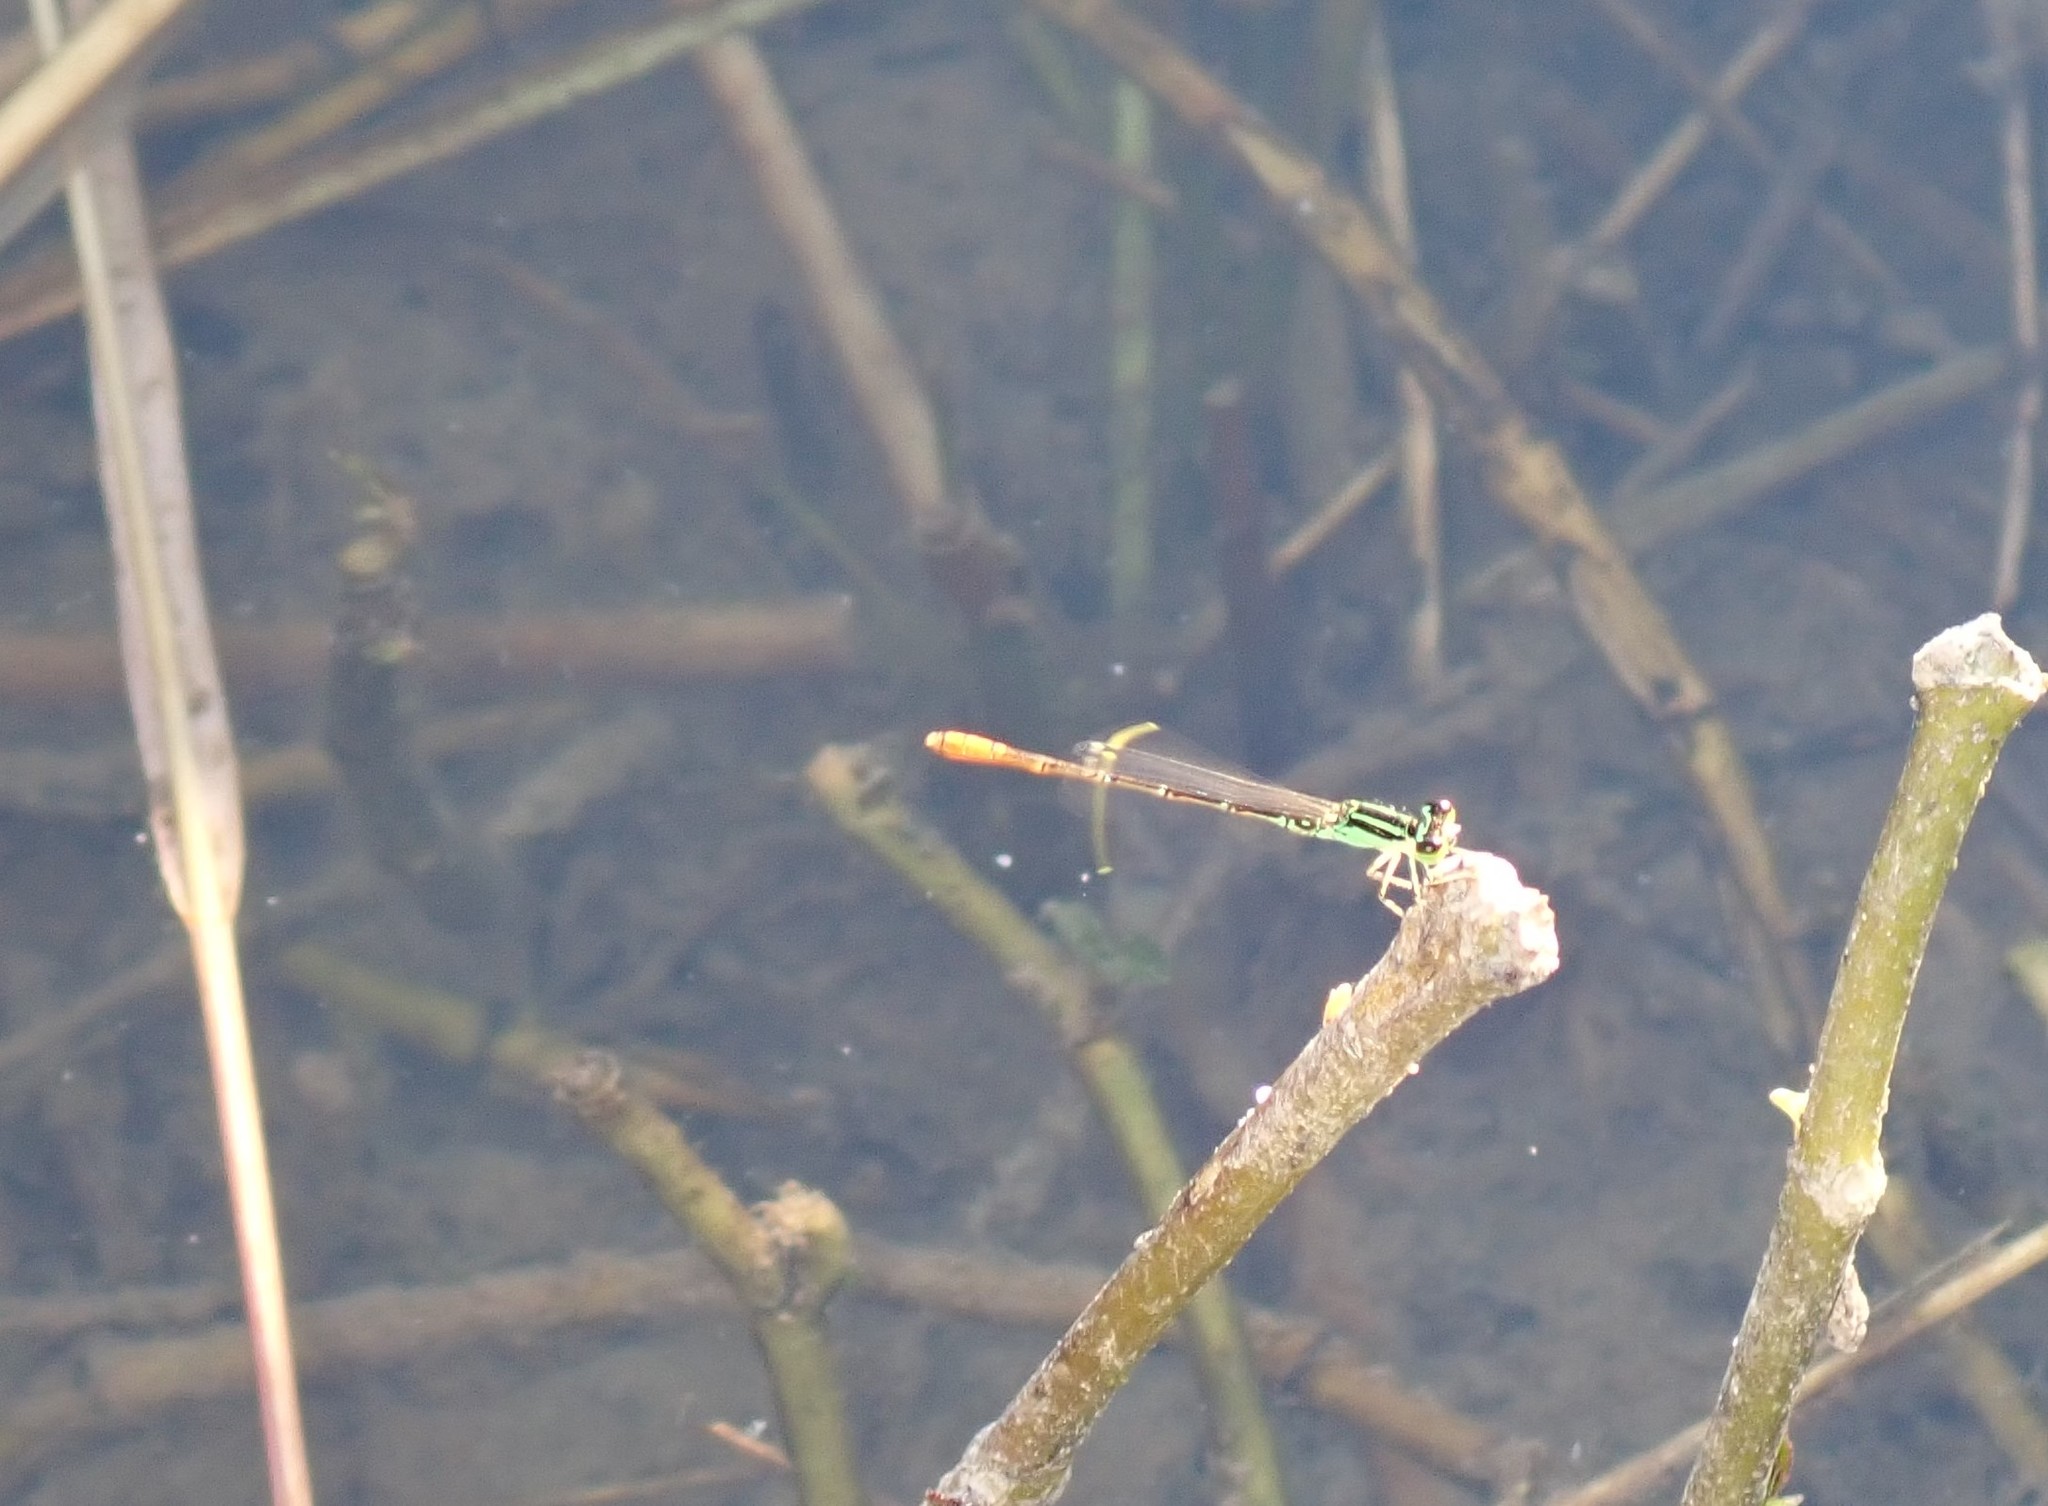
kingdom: Animalia
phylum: Arthropoda
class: Insecta
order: Odonata
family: Coenagrionidae
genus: Agriocnemis
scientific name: Agriocnemis minima
